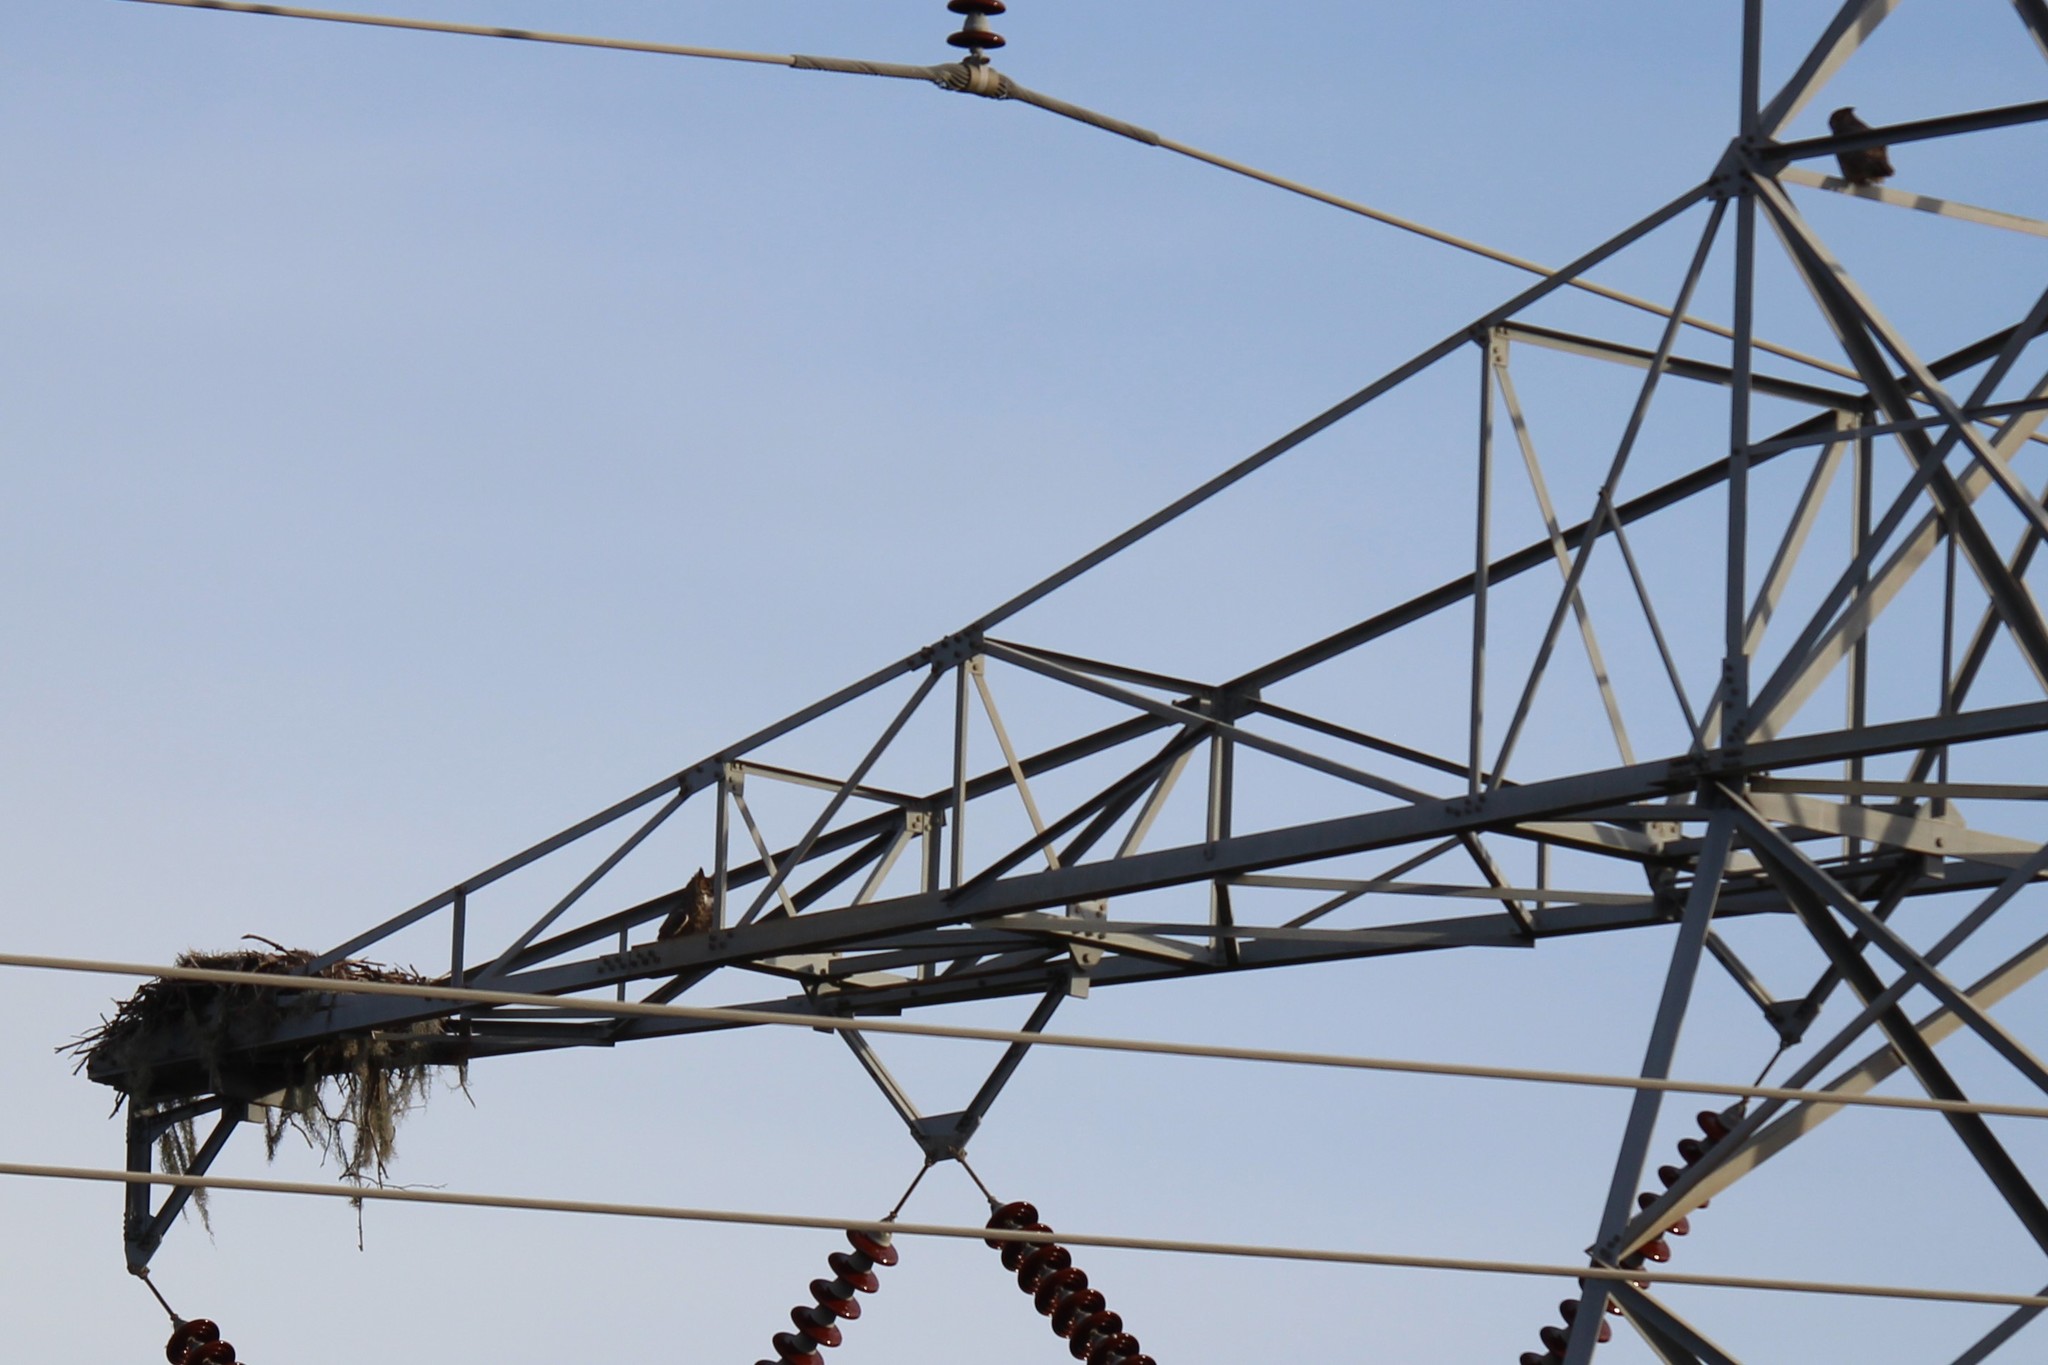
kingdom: Animalia
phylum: Chordata
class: Aves
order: Strigiformes
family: Strigidae
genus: Bubo
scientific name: Bubo virginianus
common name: Great horned owl
